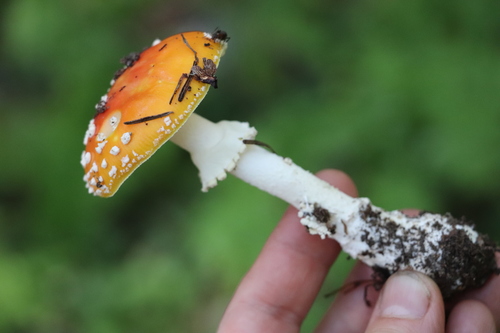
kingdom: Fungi
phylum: Basidiomycota
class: Agaricomycetes
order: Agaricales
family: Amanitaceae
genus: Amanita
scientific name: Amanita muscaria
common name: Fly agaric
